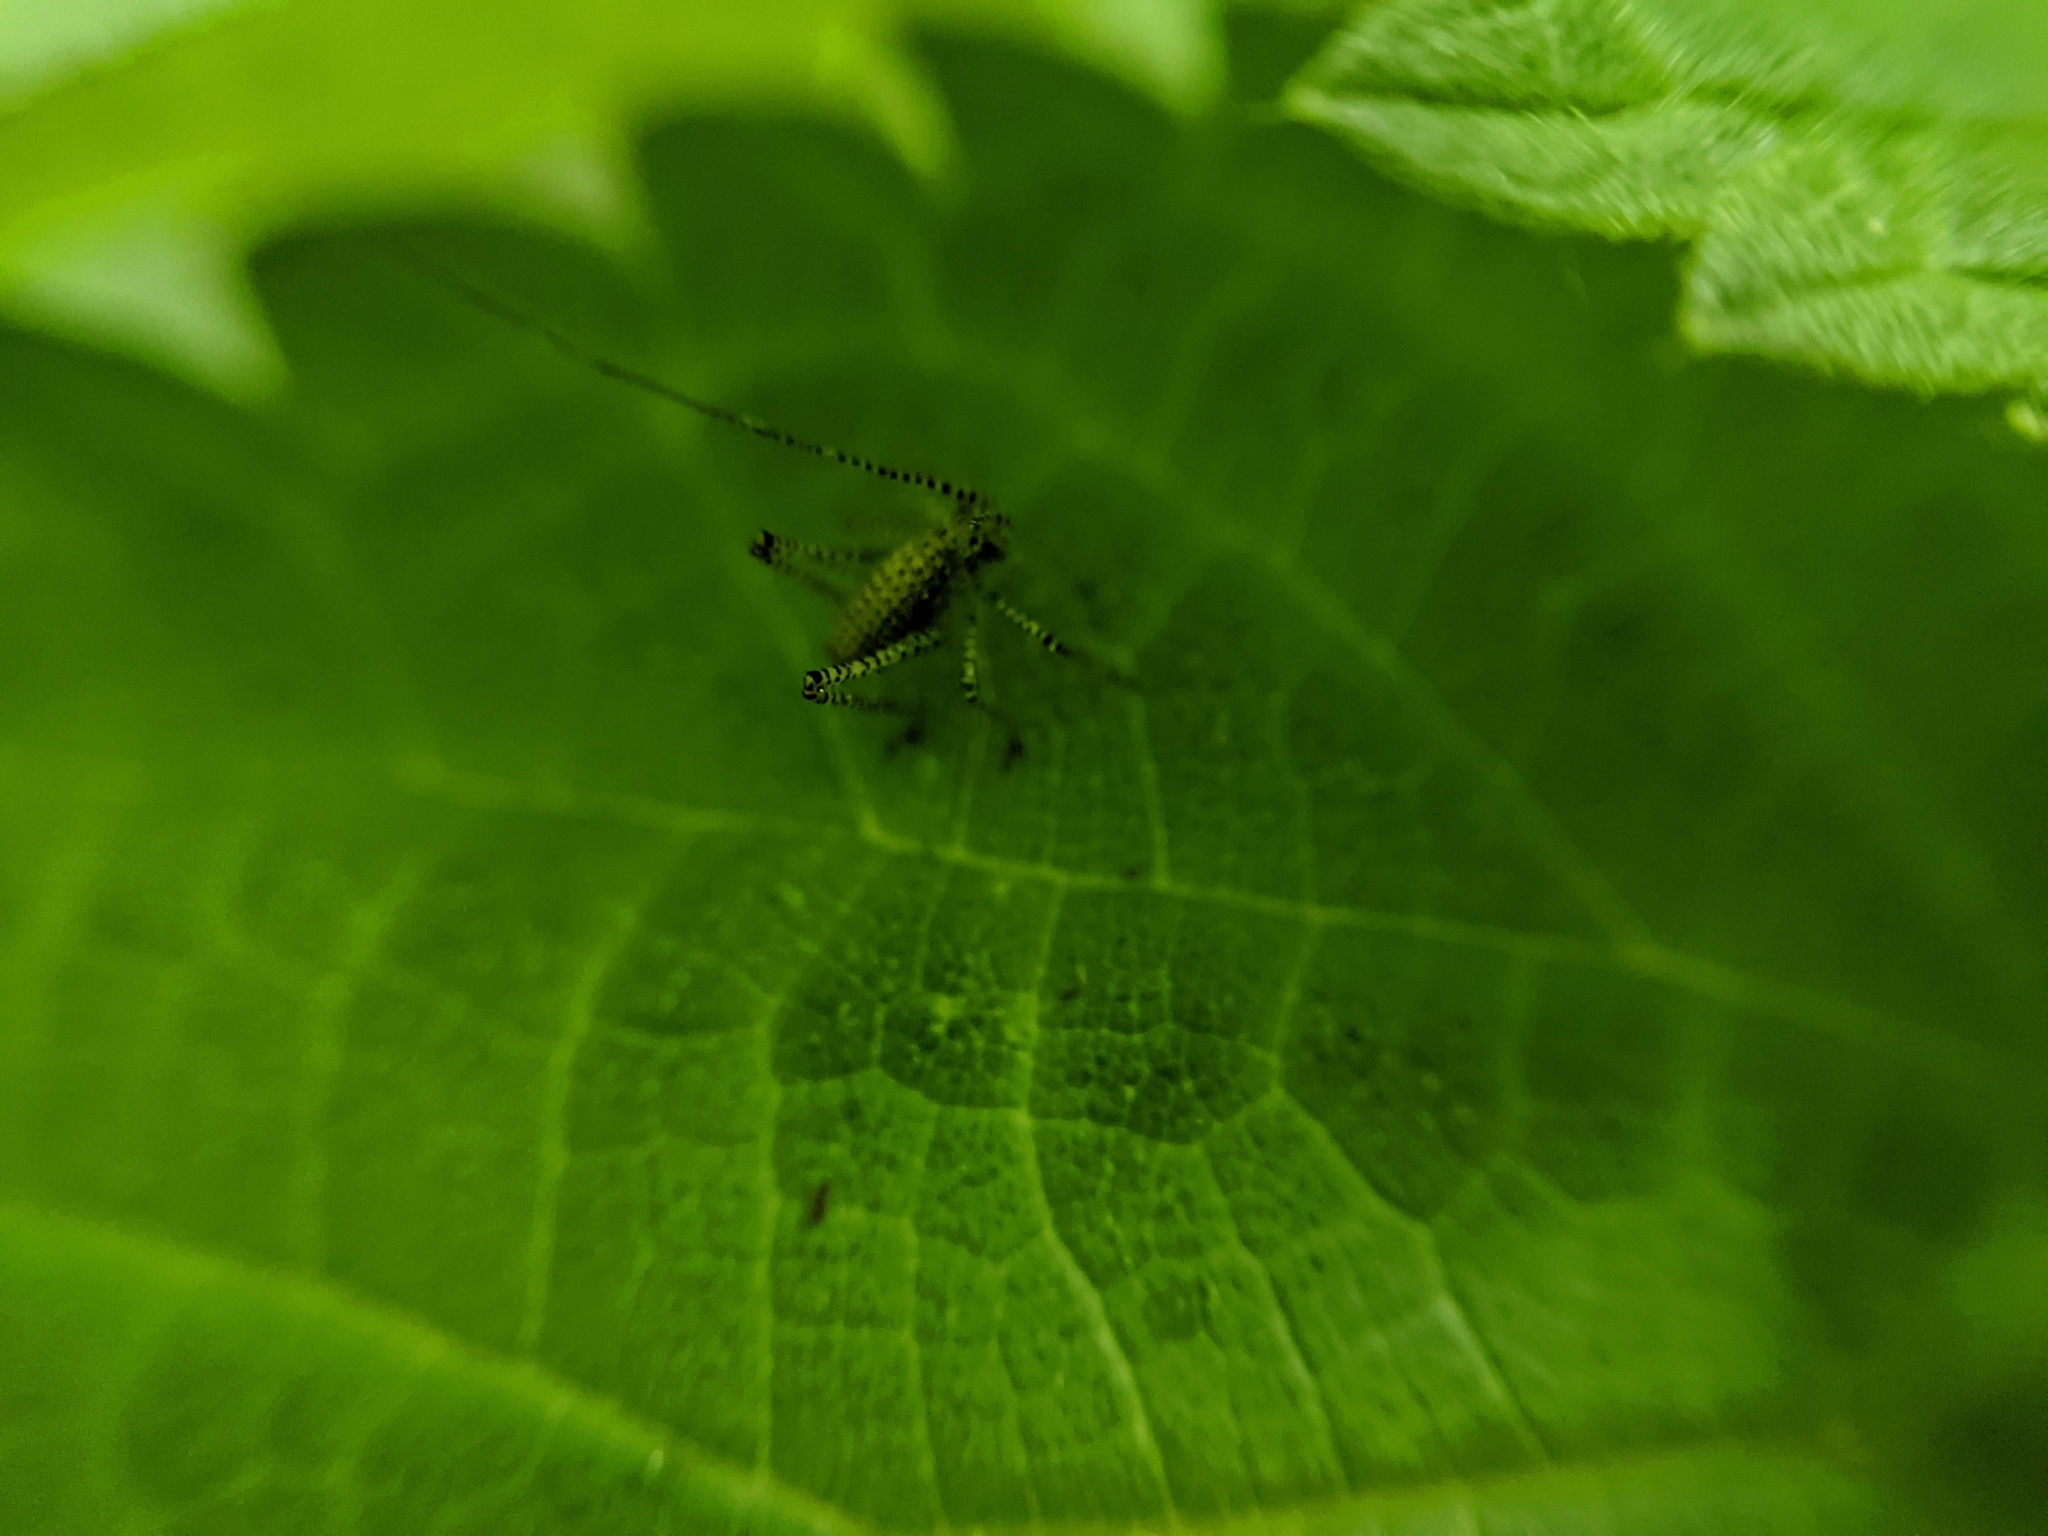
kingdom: Animalia
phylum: Arthropoda
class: Insecta
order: Orthoptera
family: Tettigoniidae
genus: Leptophyes
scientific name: Leptophyes punctatissima
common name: Speckled bush-cricket
